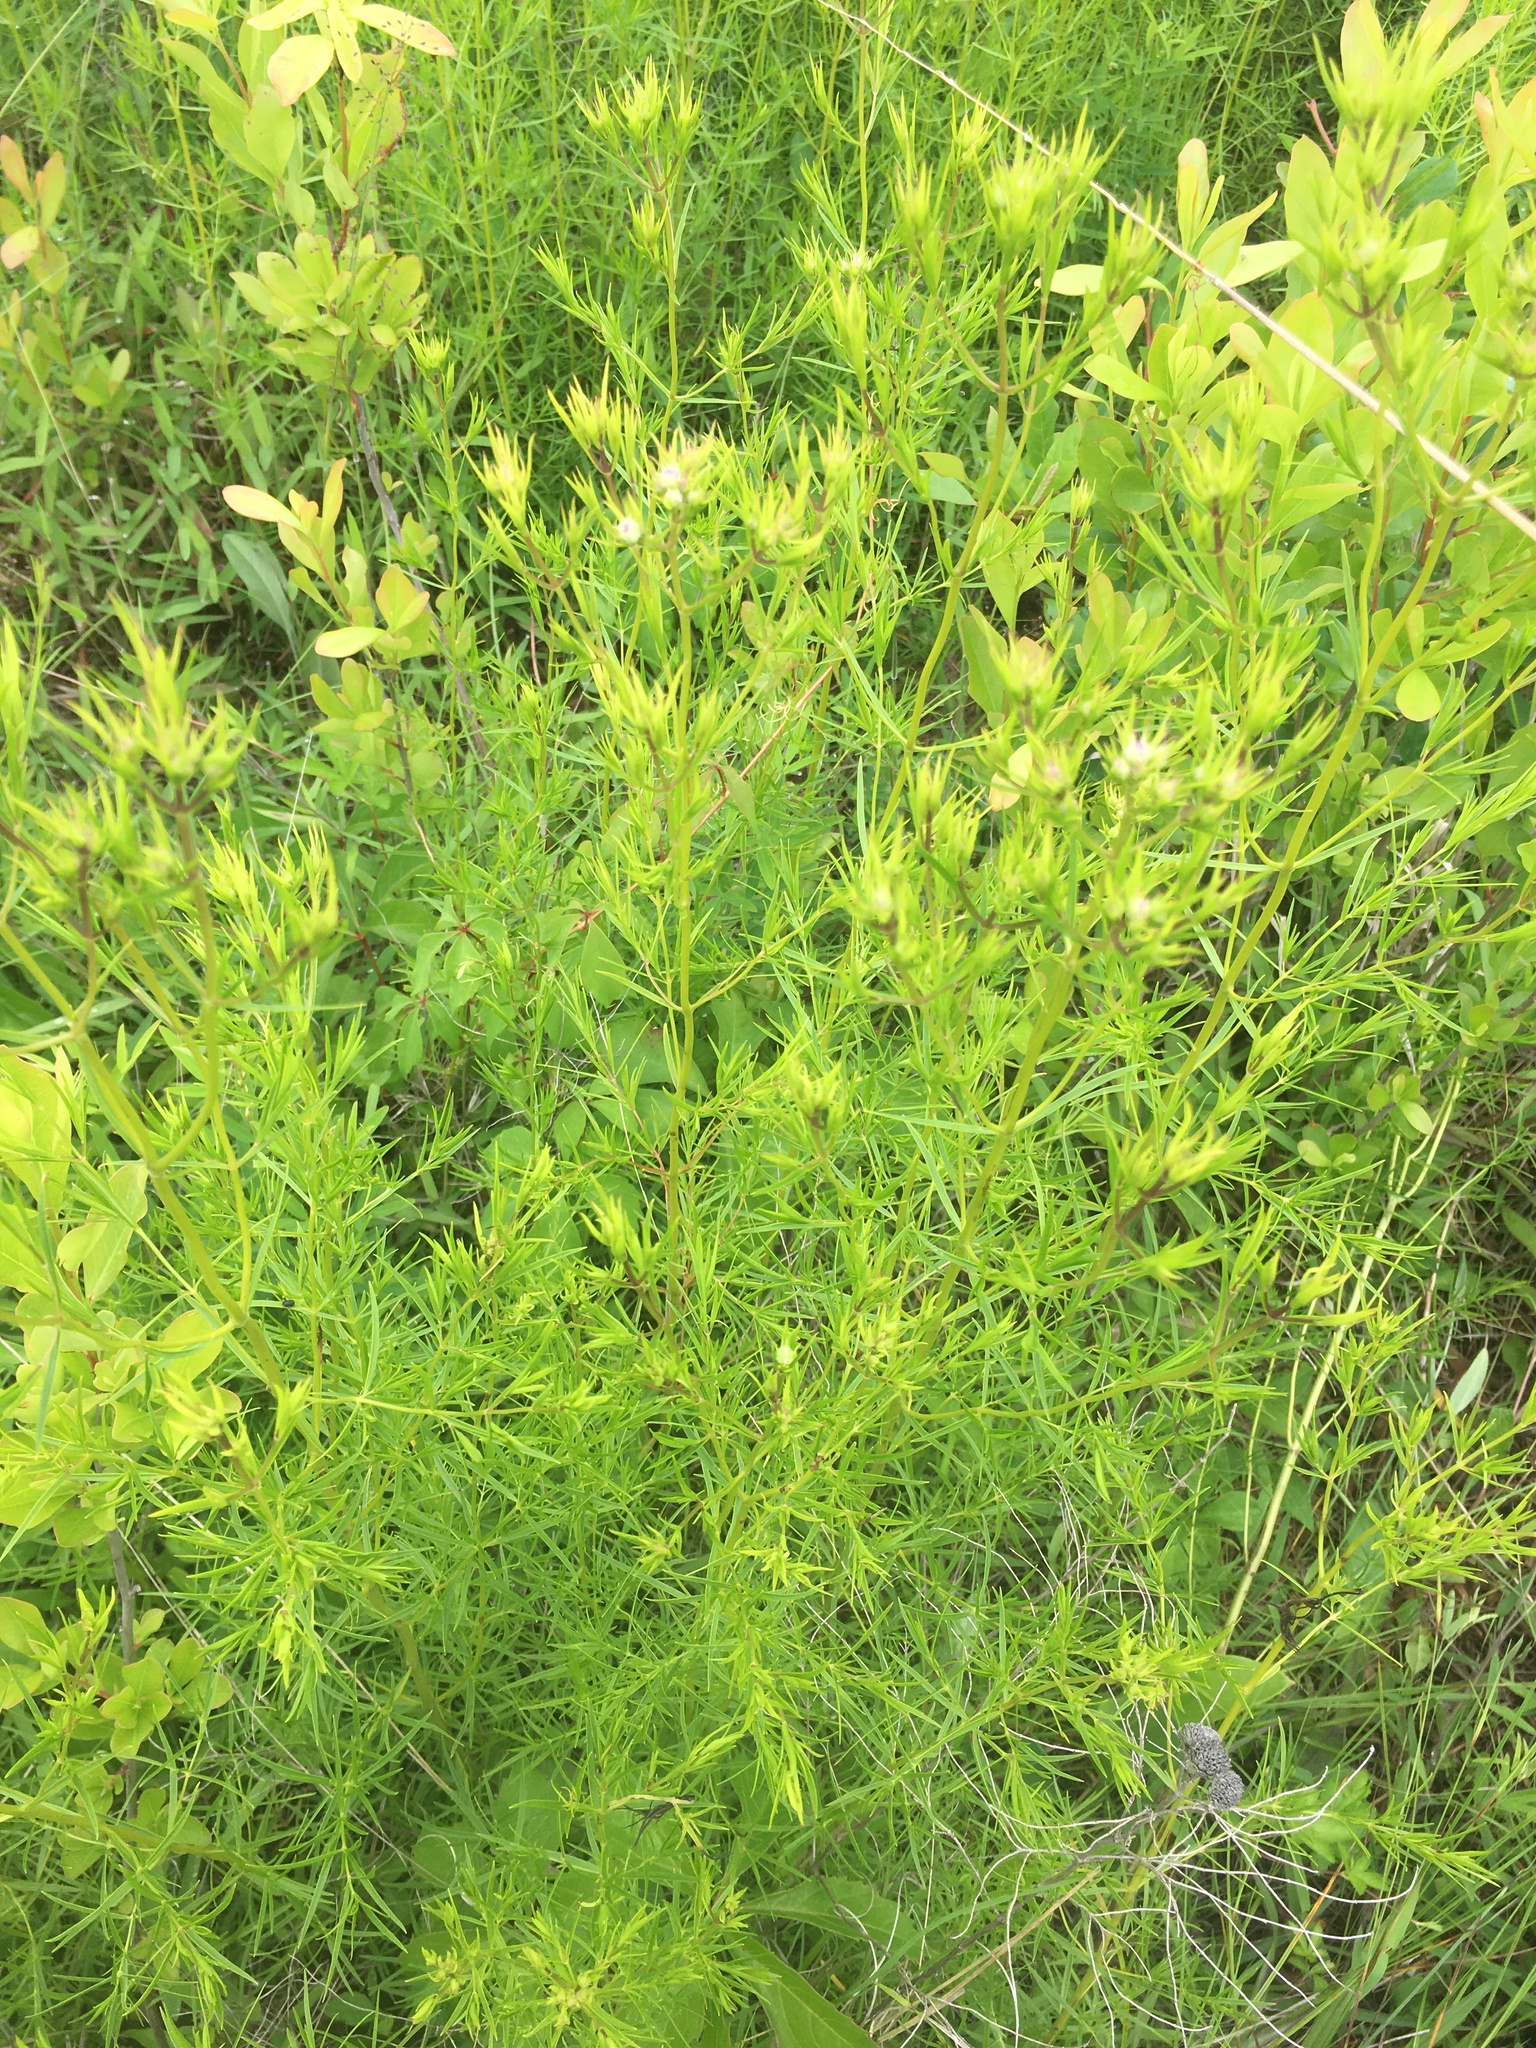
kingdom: Plantae
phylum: Tracheophyta
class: Magnoliopsida
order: Lamiales
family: Lamiaceae
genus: Pycnanthemum
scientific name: Pycnanthemum tenuifolium
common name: Narrow-leaf mountain-mint
